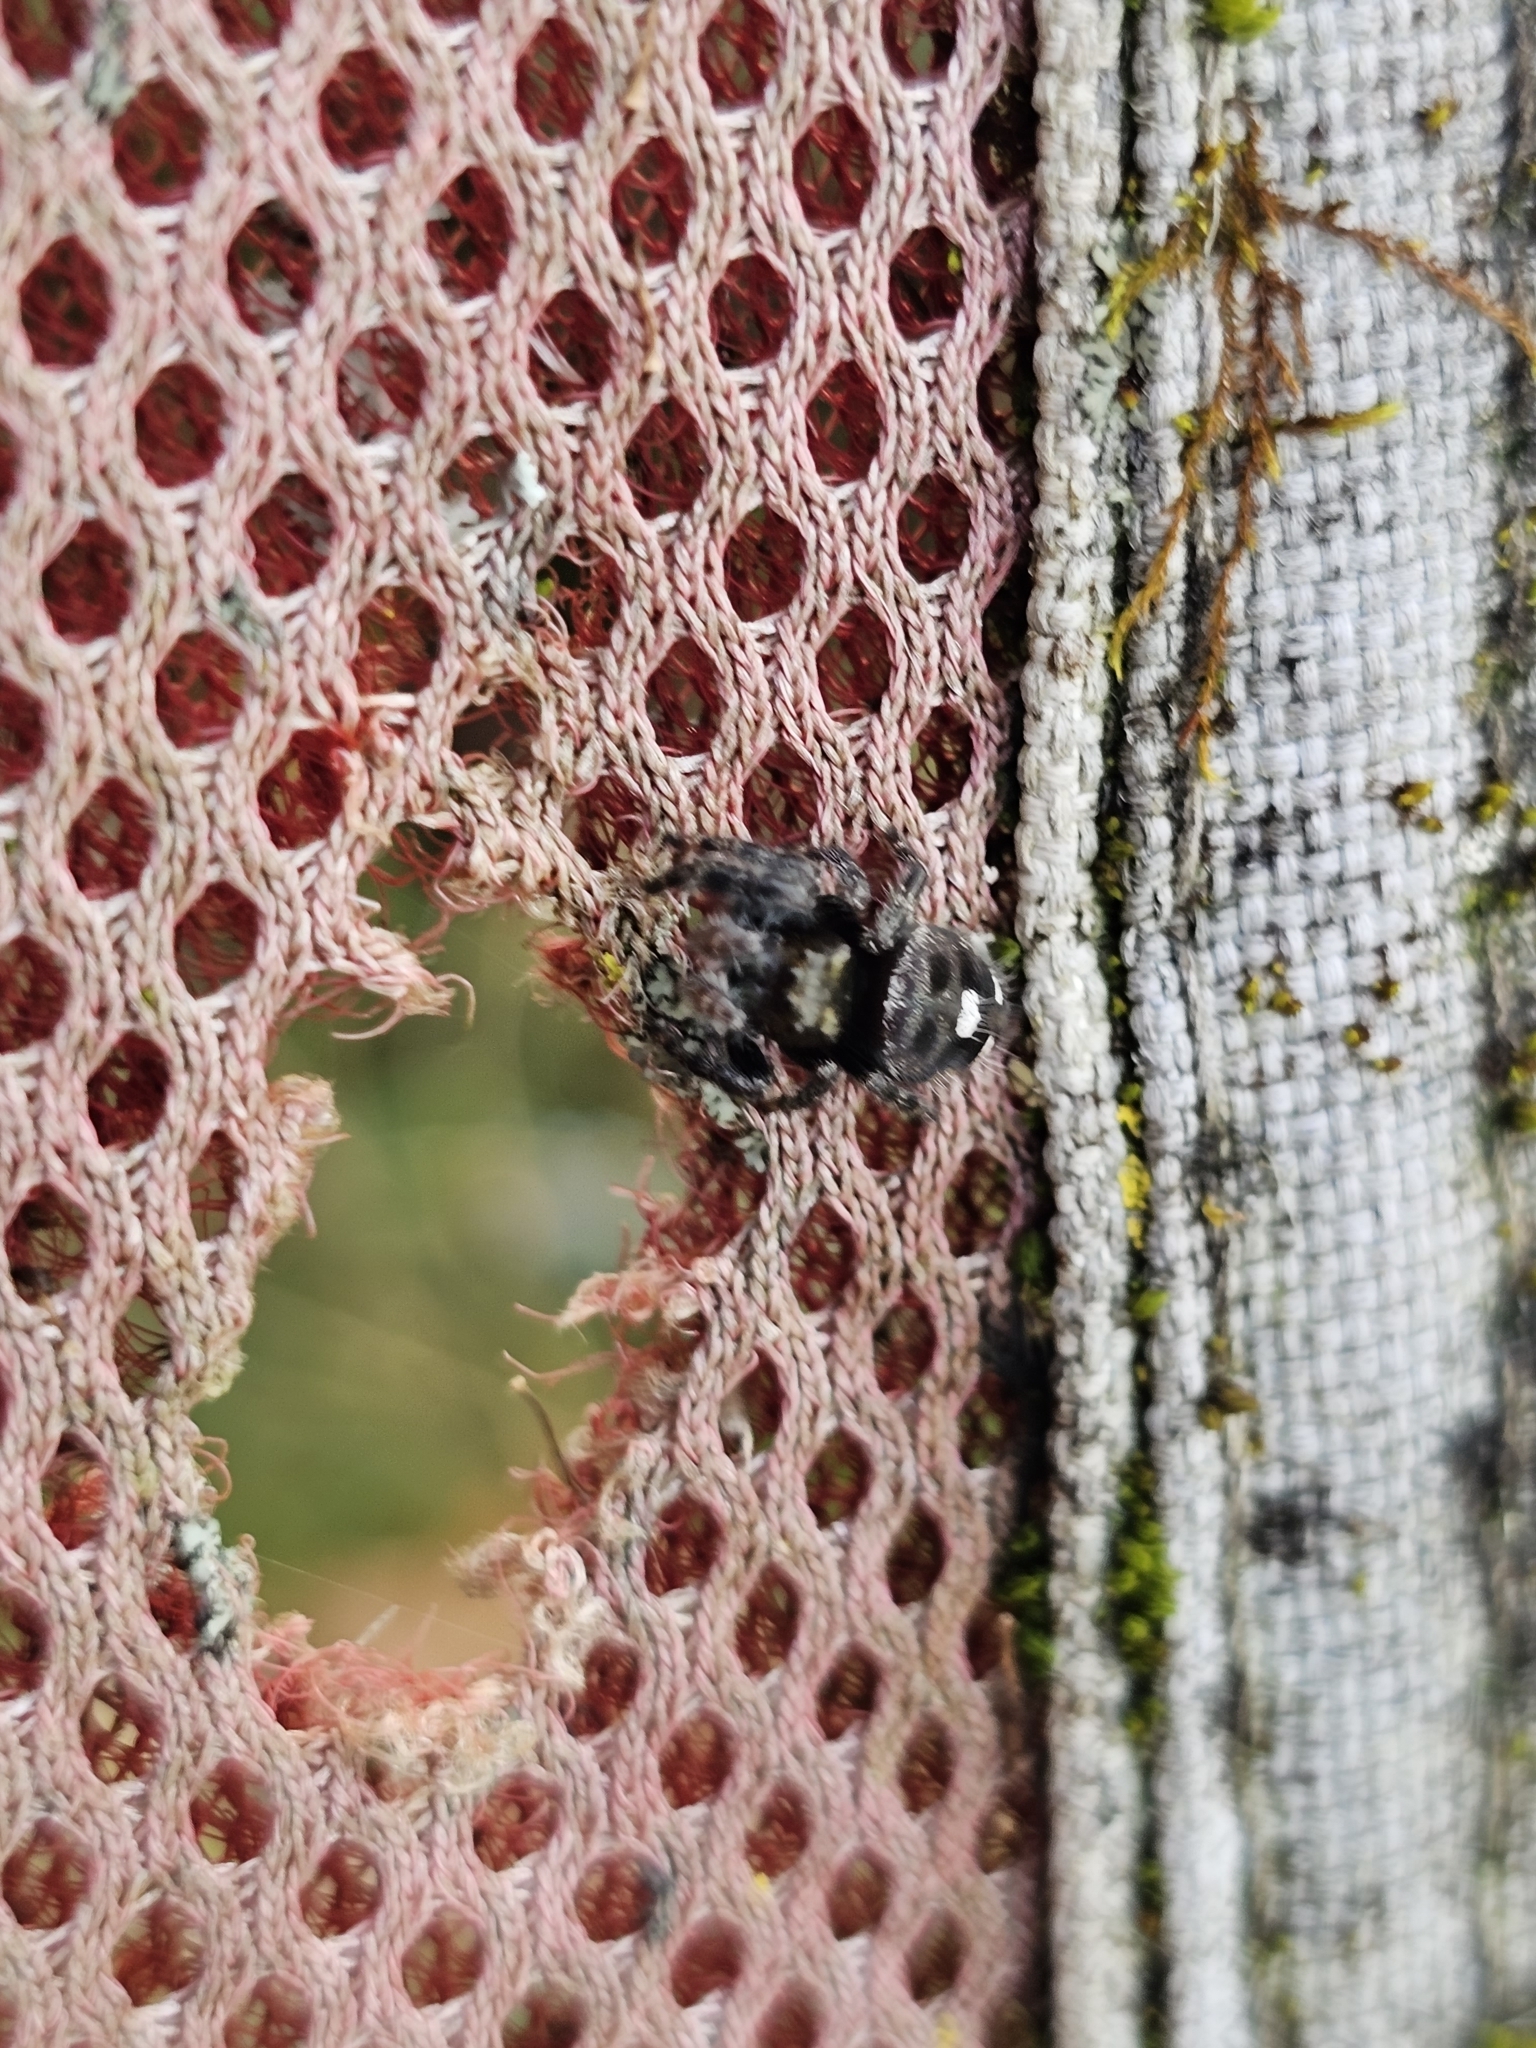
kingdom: Animalia
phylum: Arthropoda
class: Arachnida
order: Araneae
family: Salticidae
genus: Phidippus
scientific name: Phidippus audax
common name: Bold jumper
